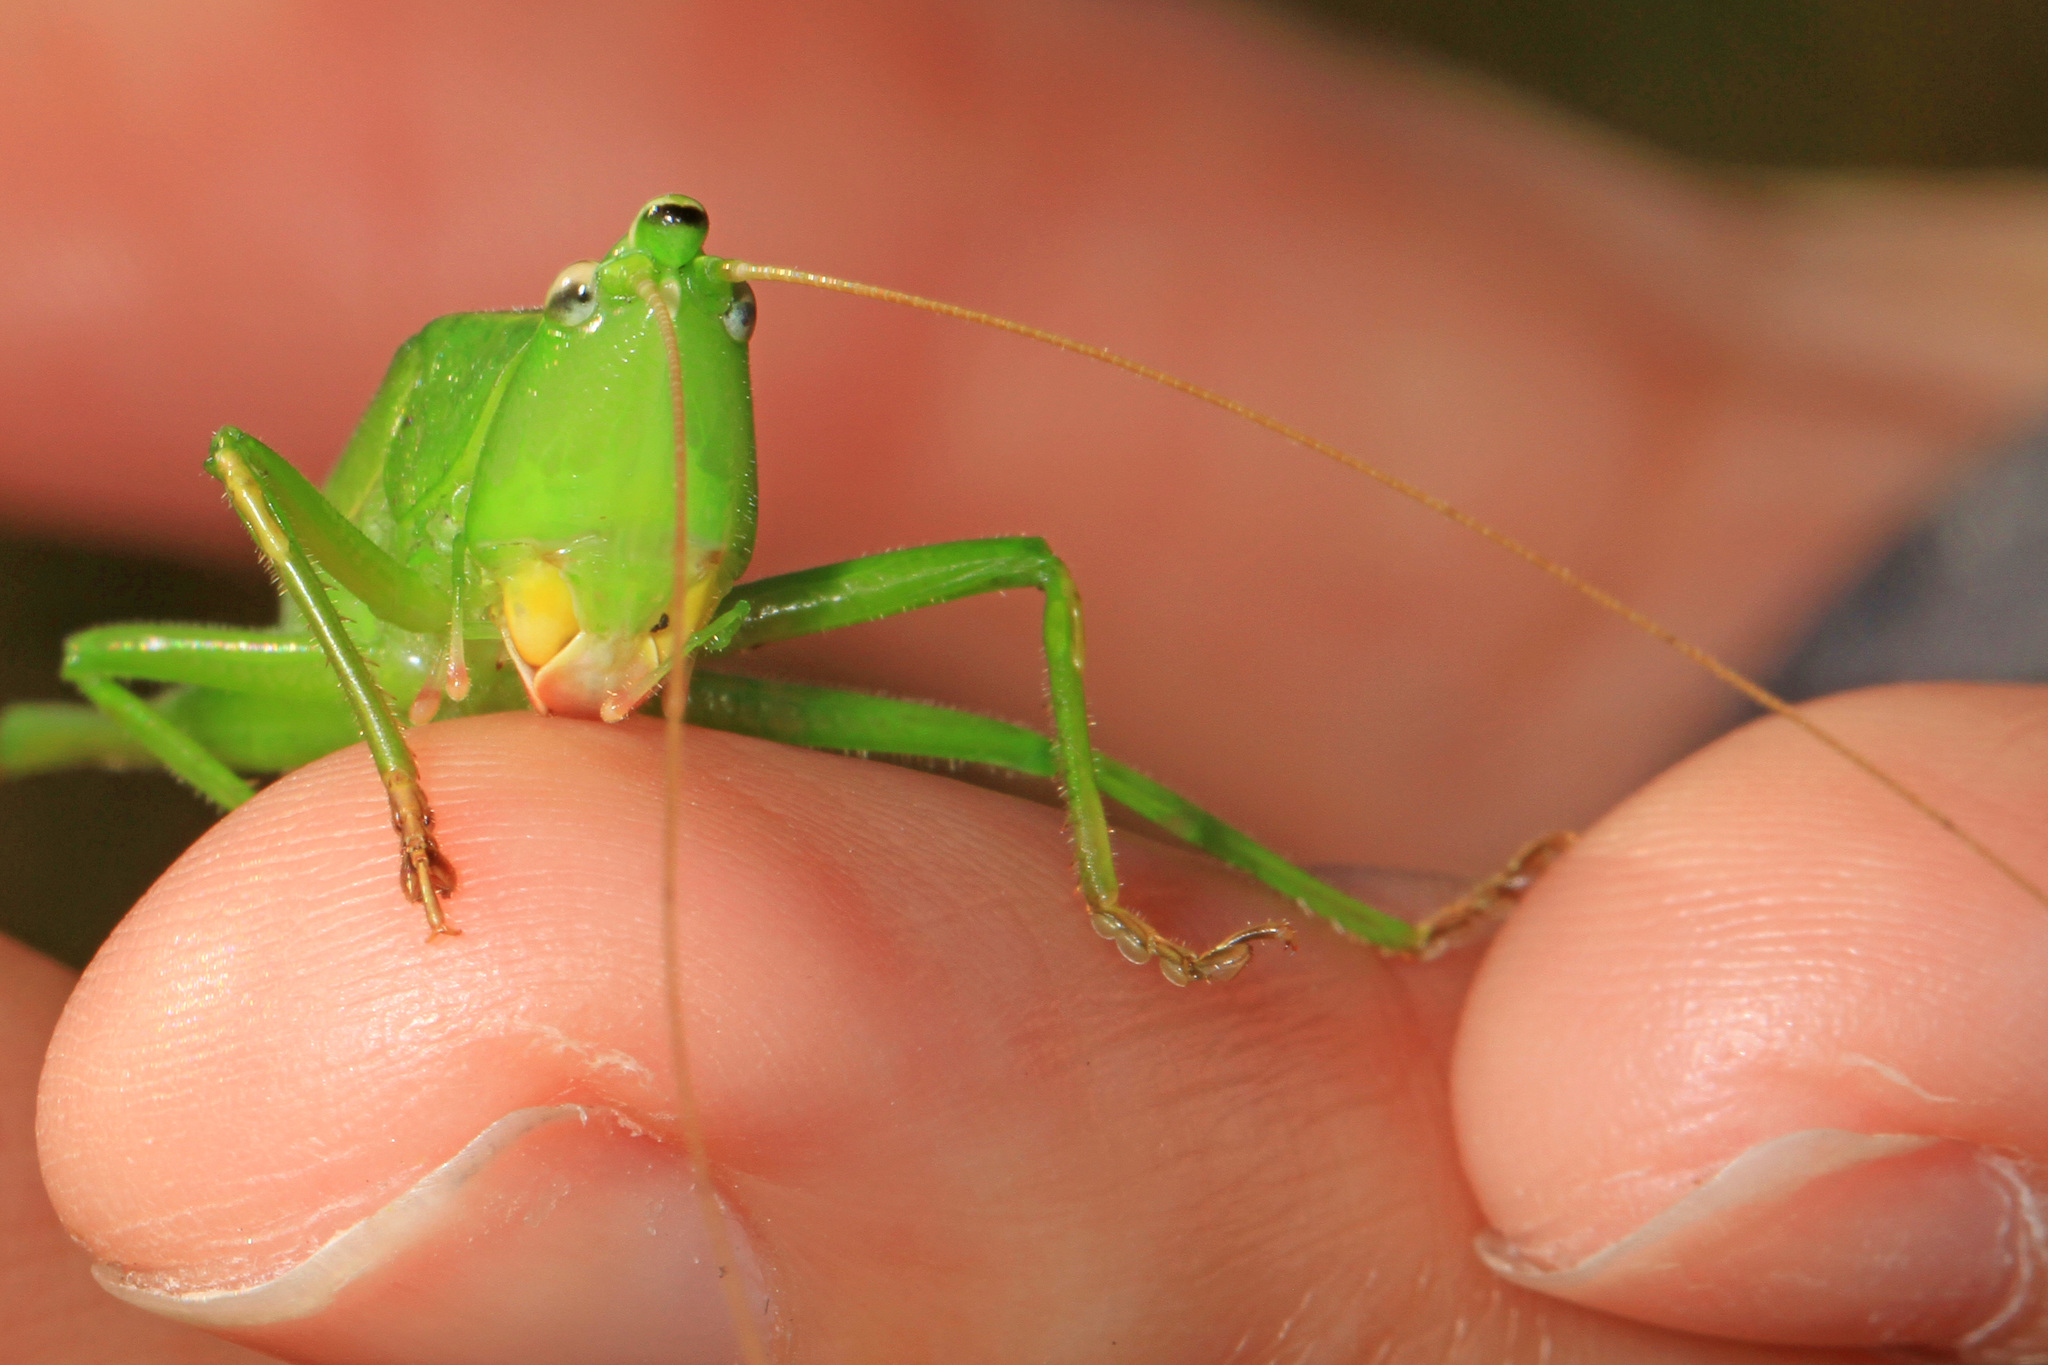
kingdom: Animalia
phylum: Arthropoda
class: Insecta
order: Orthoptera
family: Tettigoniidae
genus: Neoconocephalus
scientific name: Neoconocephalus retusus
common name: Round-tipped conehead
